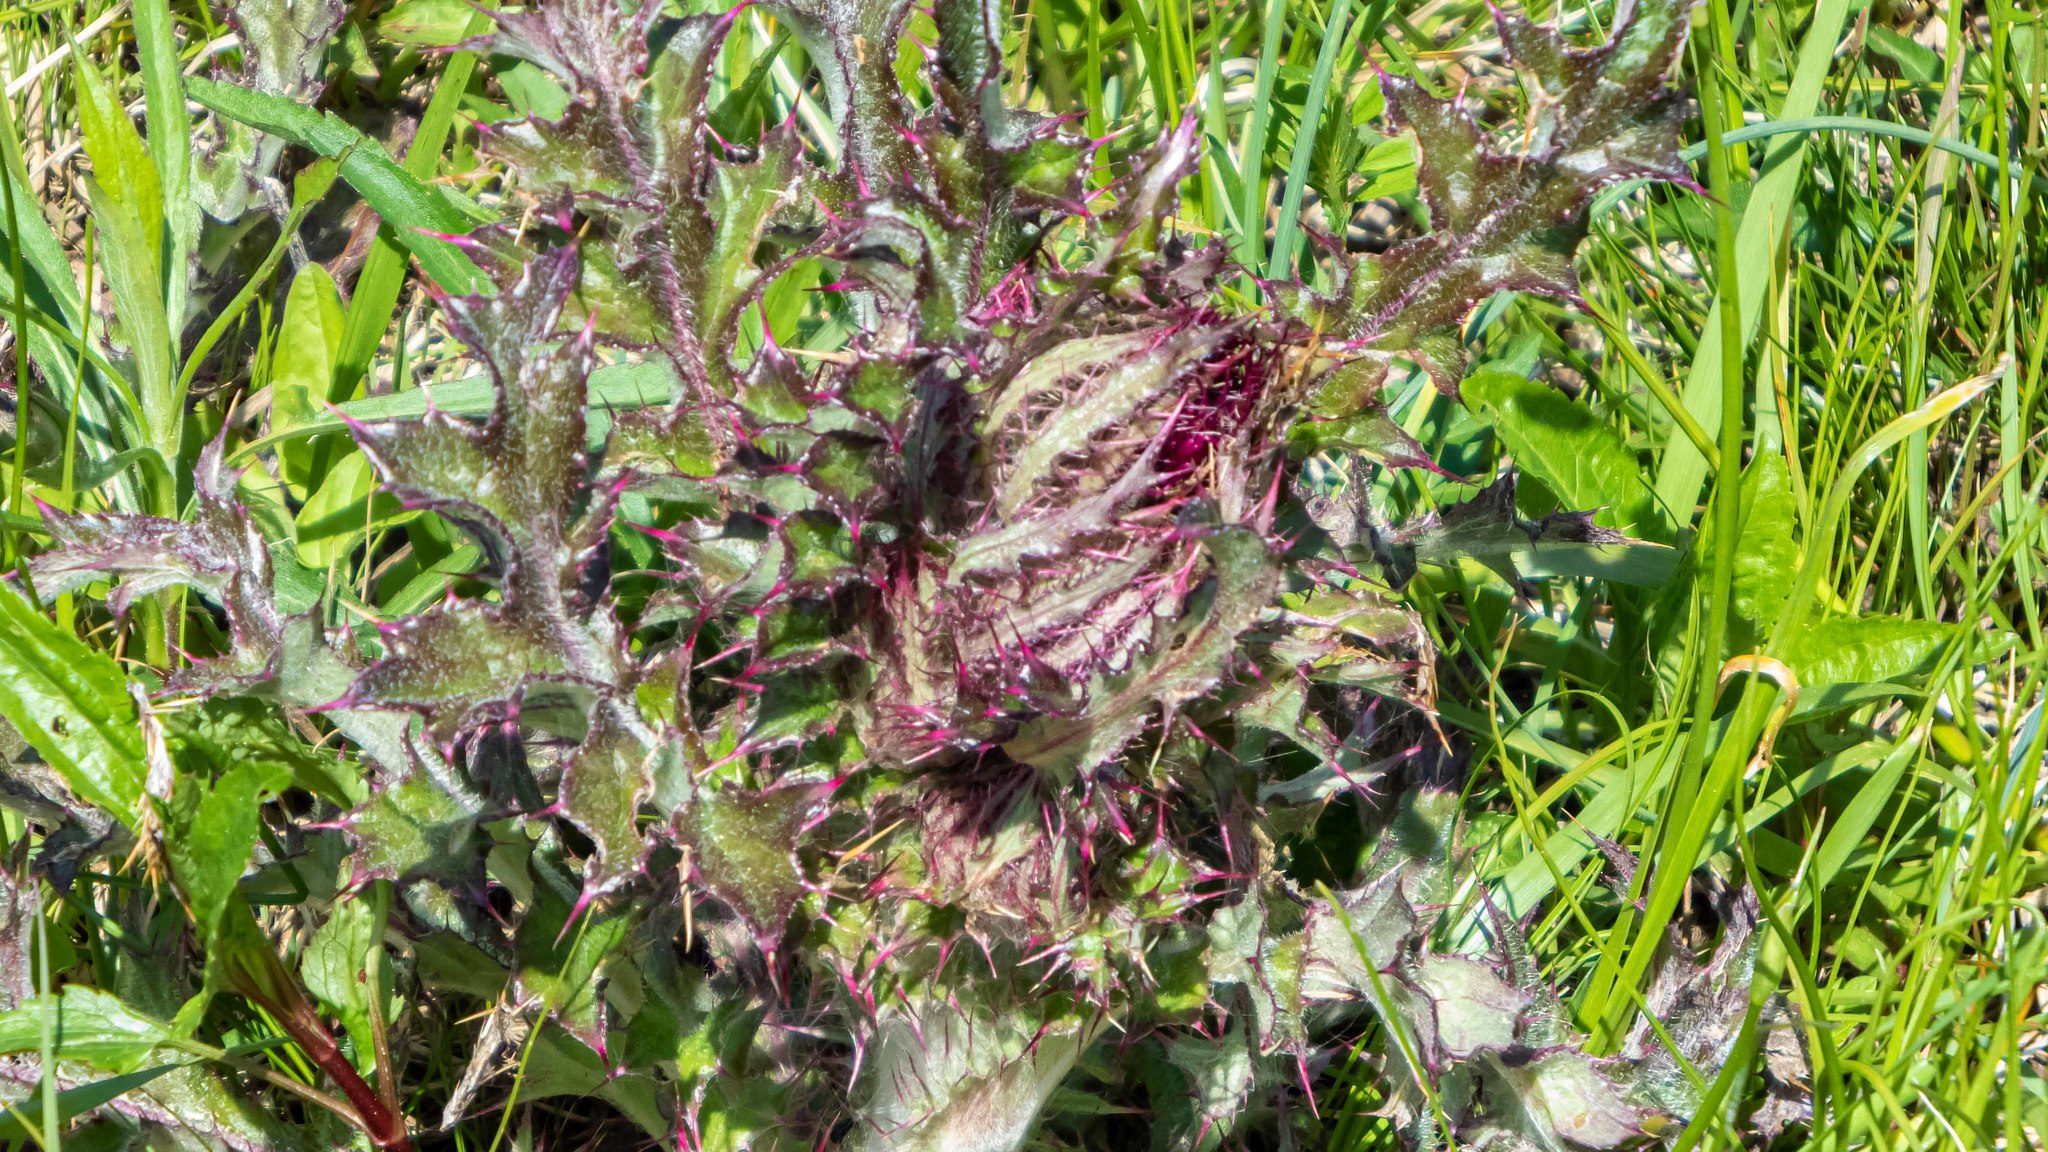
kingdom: Plantae
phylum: Tracheophyta
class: Magnoliopsida
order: Asterales
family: Asteraceae
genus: Cirsium
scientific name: Cirsium horridulum
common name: Bristly thistle
